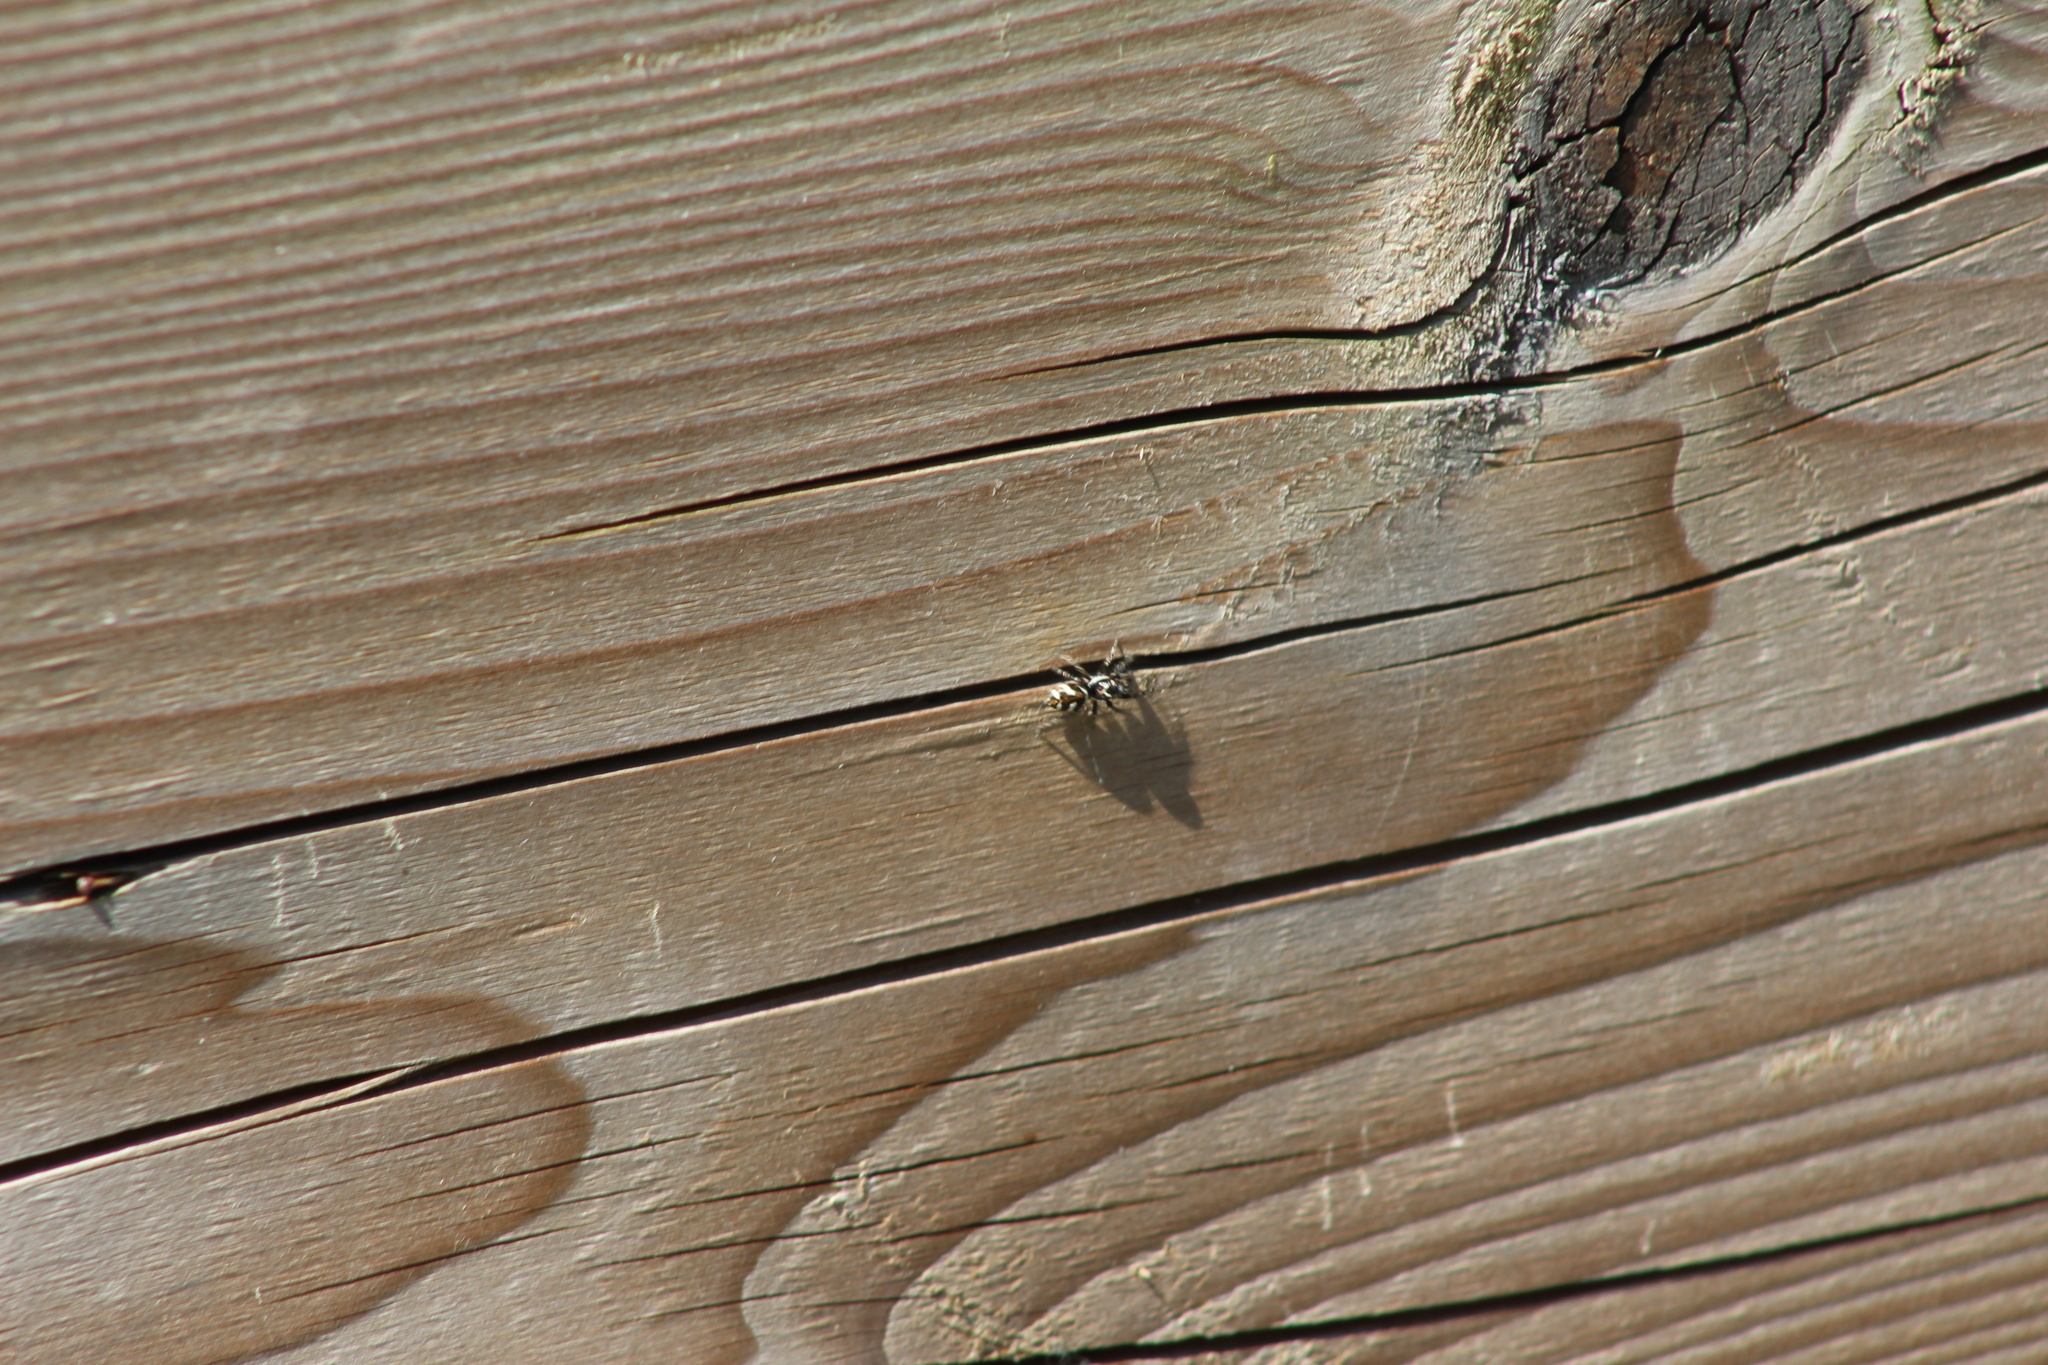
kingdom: Animalia
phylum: Arthropoda
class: Arachnida
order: Araneae
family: Salticidae
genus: Salticus
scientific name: Salticus scenicus
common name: Zebra jumper
